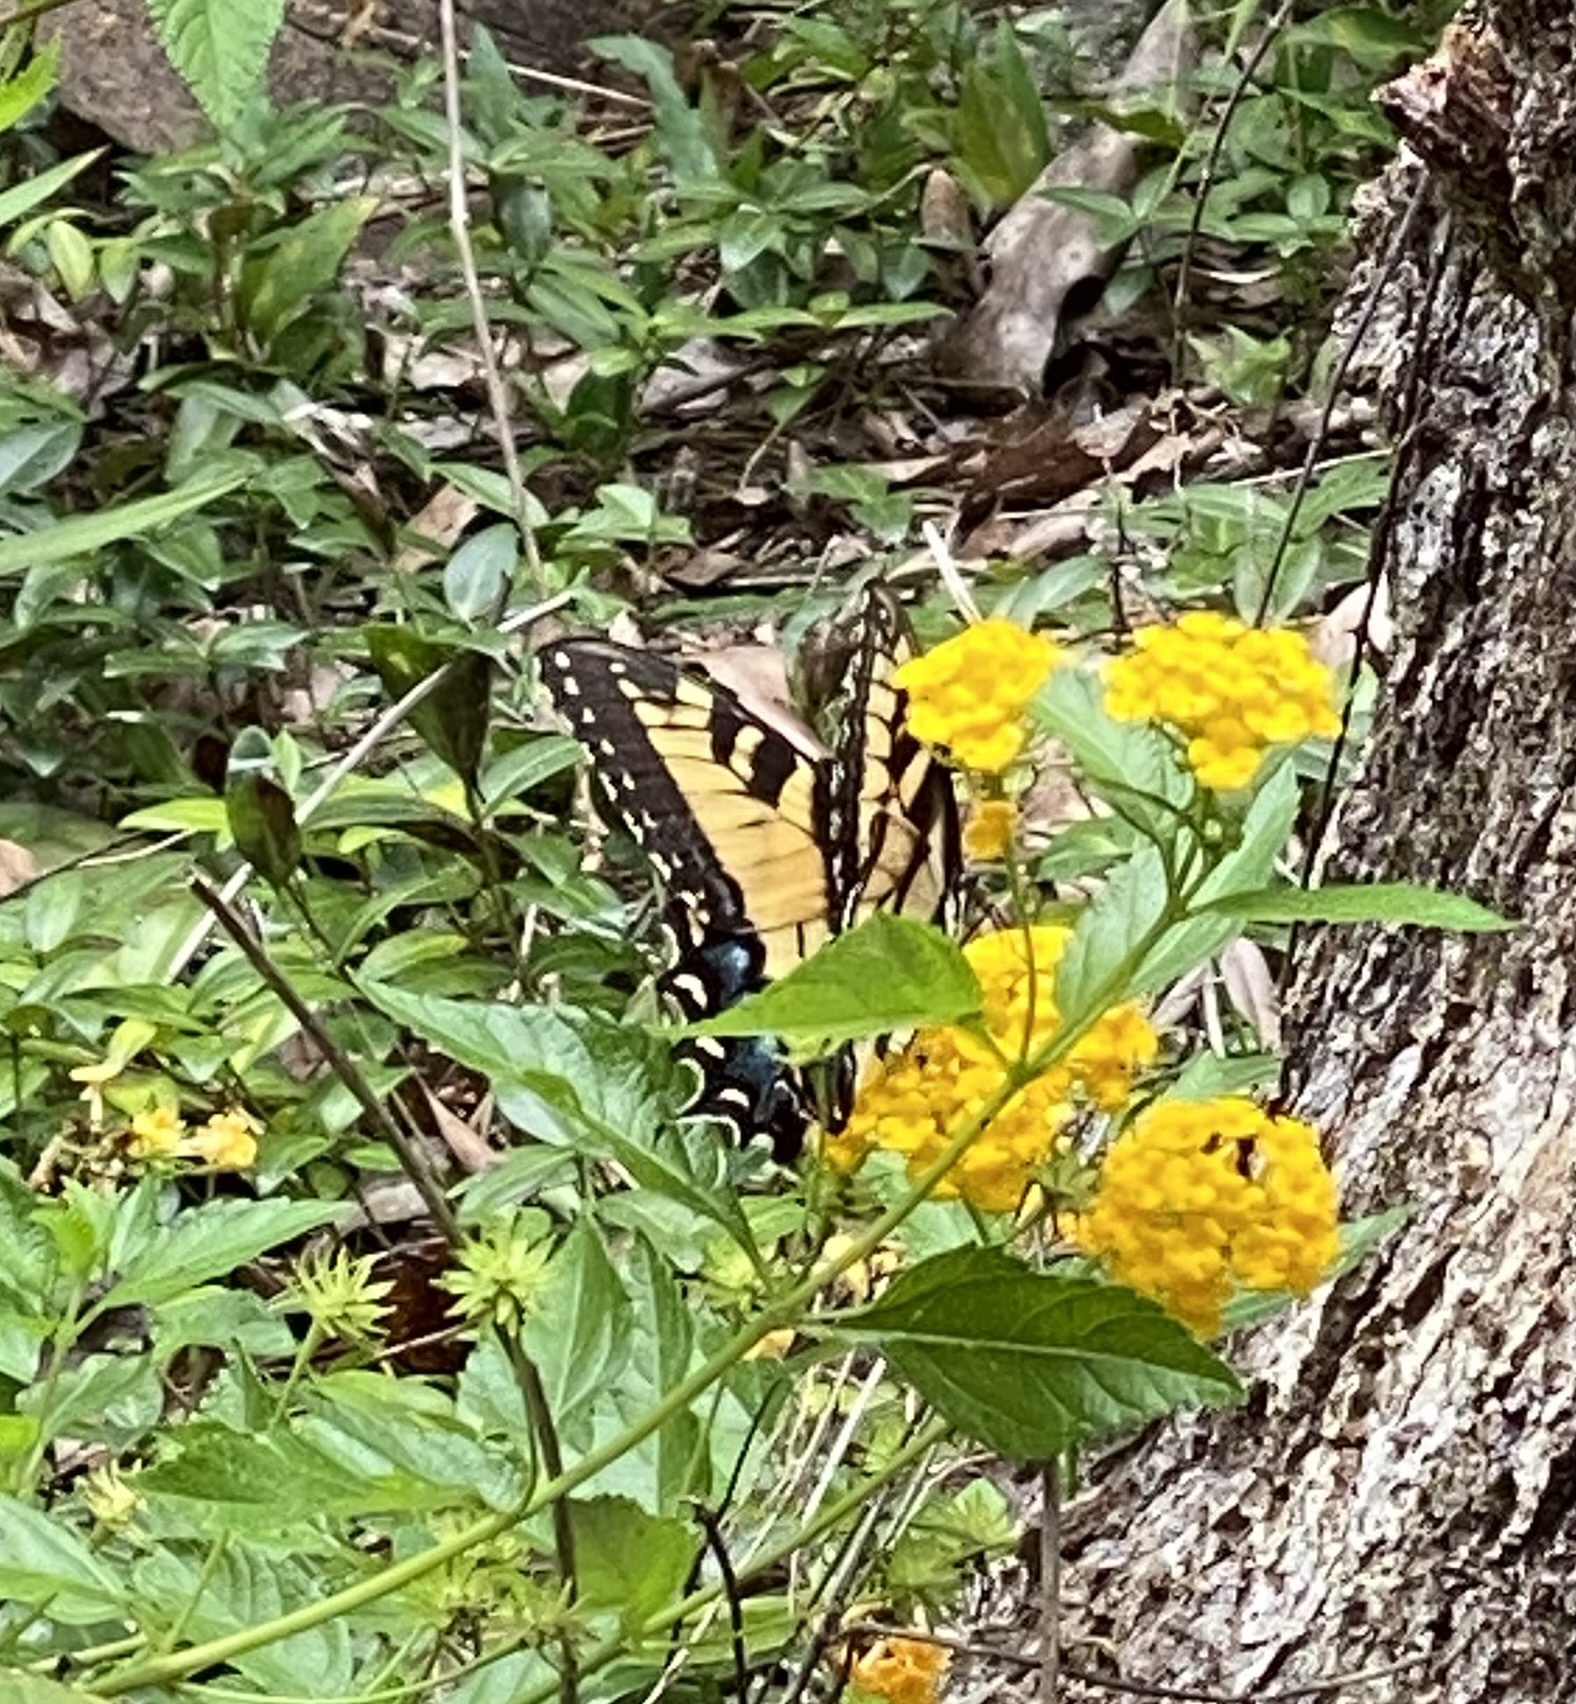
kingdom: Animalia
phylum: Arthropoda
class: Insecta
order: Lepidoptera
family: Papilionidae
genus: Papilio
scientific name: Papilio glaucus
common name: Tiger swallowtail
